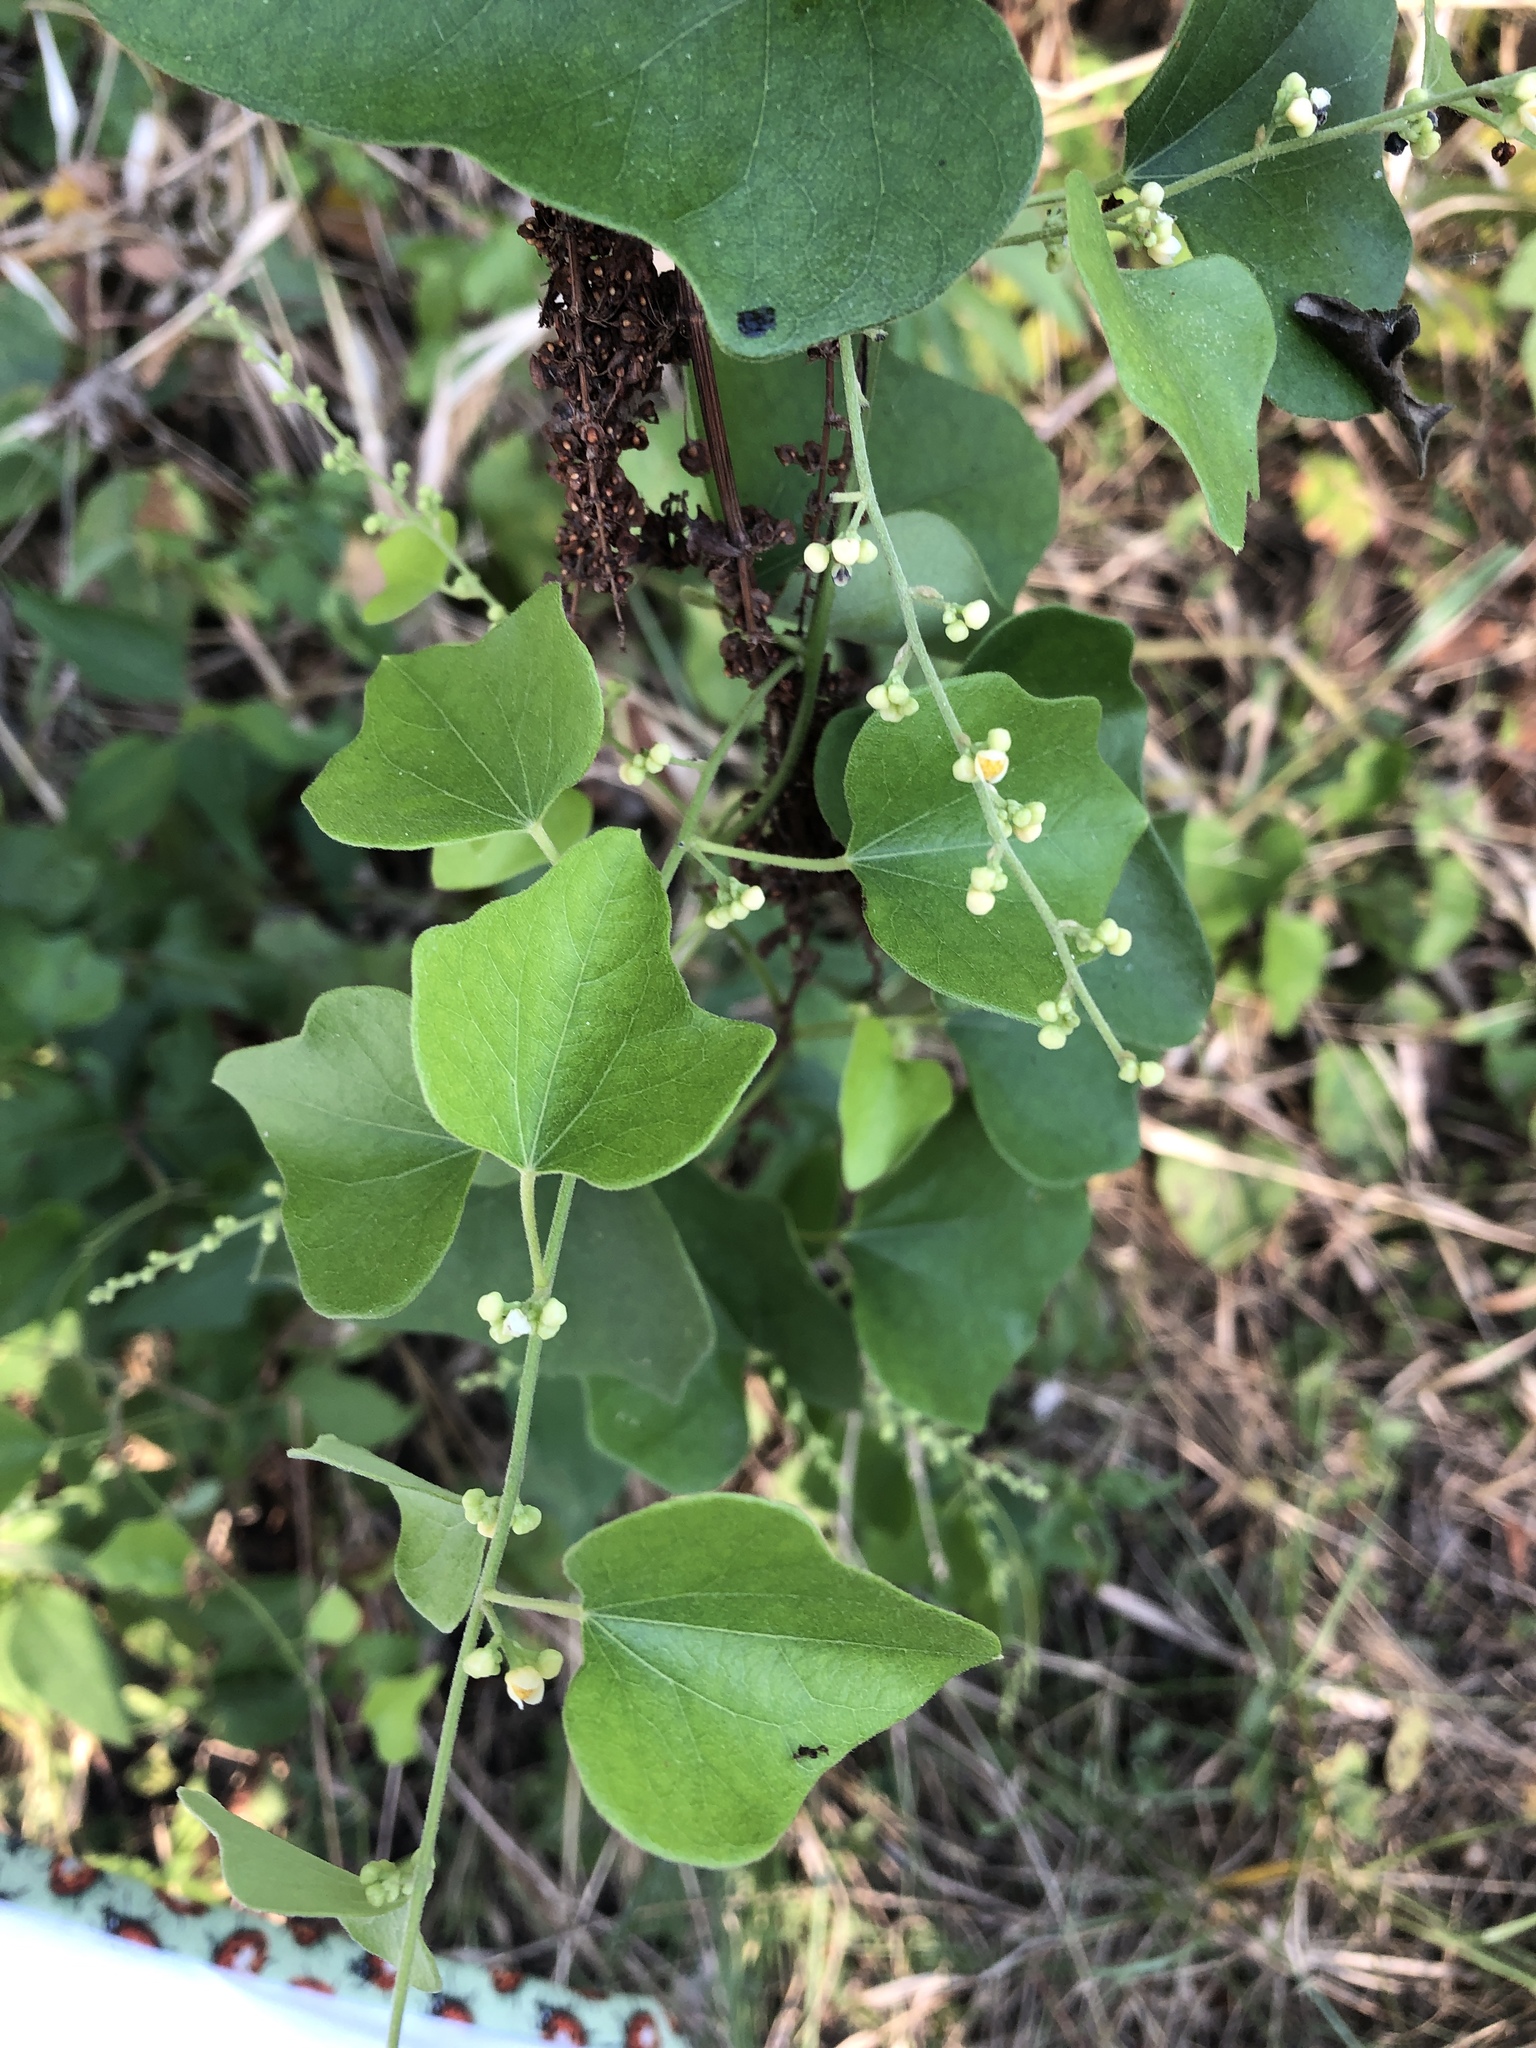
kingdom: Plantae
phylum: Tracheophyta
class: Magnoliopsida
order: Ranunculales
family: Menispermaceae
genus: Cocculus
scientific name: Cocculus carolinus
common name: Carolina moonseed
